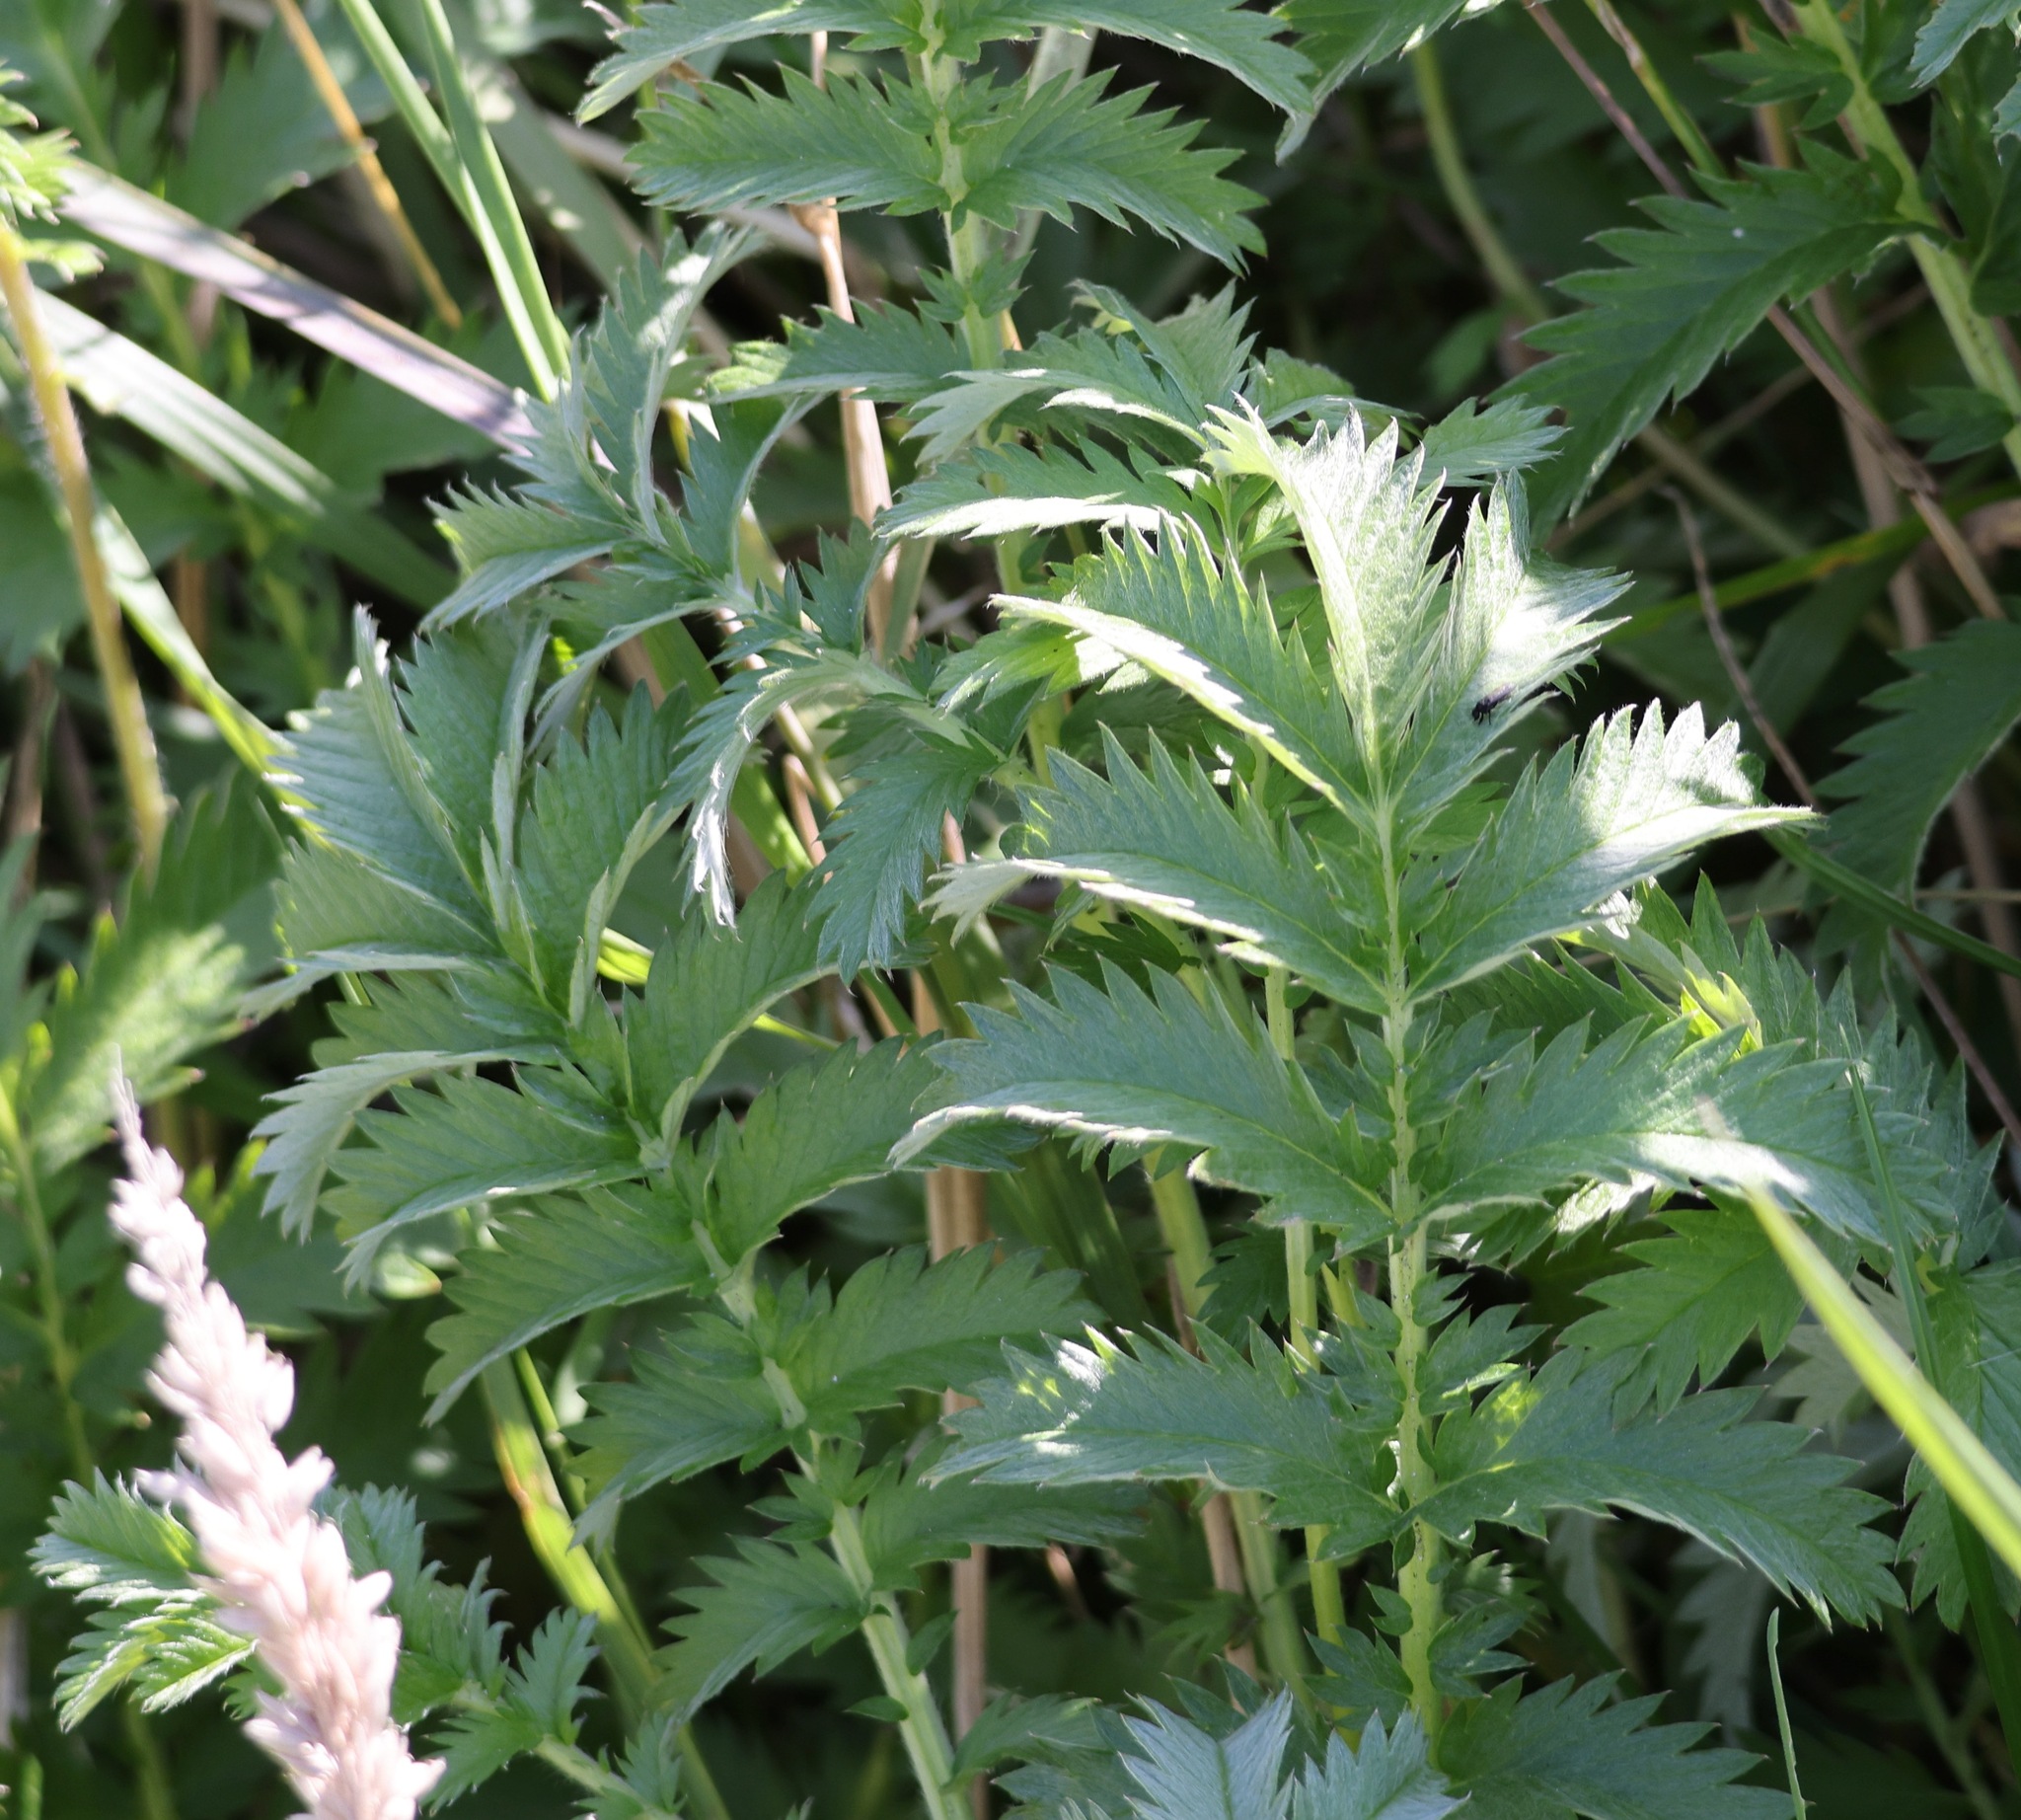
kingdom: Plantae
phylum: Tracheophyta
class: Magnoliopsida
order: Rosales
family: Rosaceae
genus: Argentina
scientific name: Argentina anserina
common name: Common silverweed
